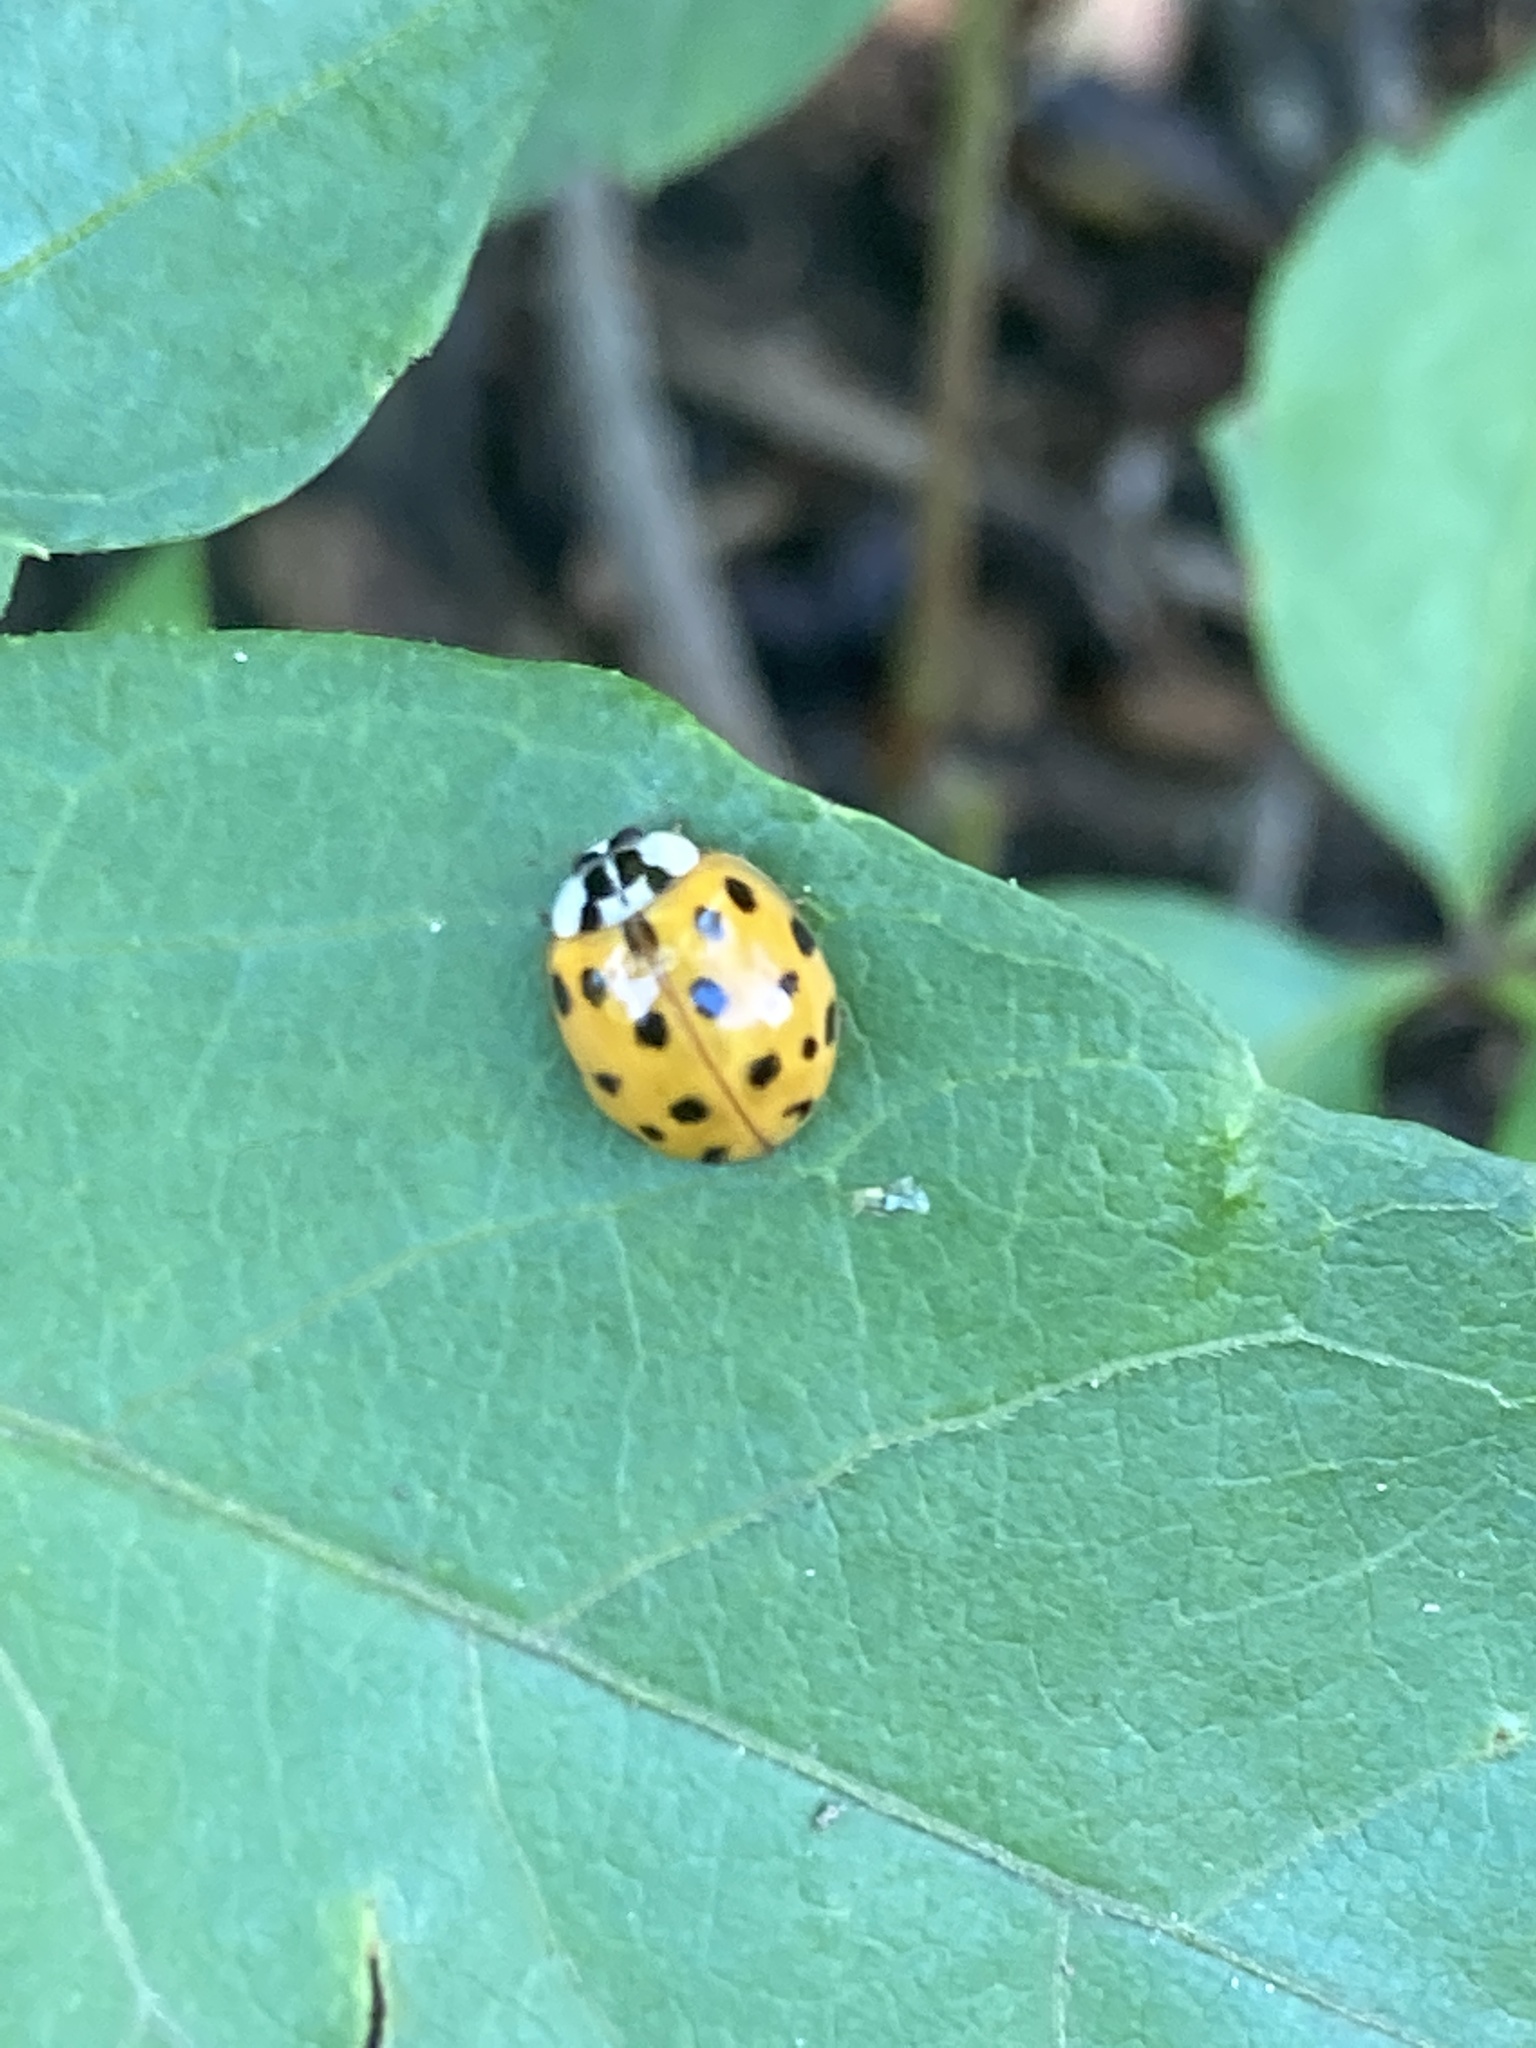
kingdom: Animalia
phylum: Arthropoda
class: Insecta
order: Coleoptera
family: Coccinellidae
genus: Harmonia
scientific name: Harmonia axyridis
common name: Harlequin ladybird
